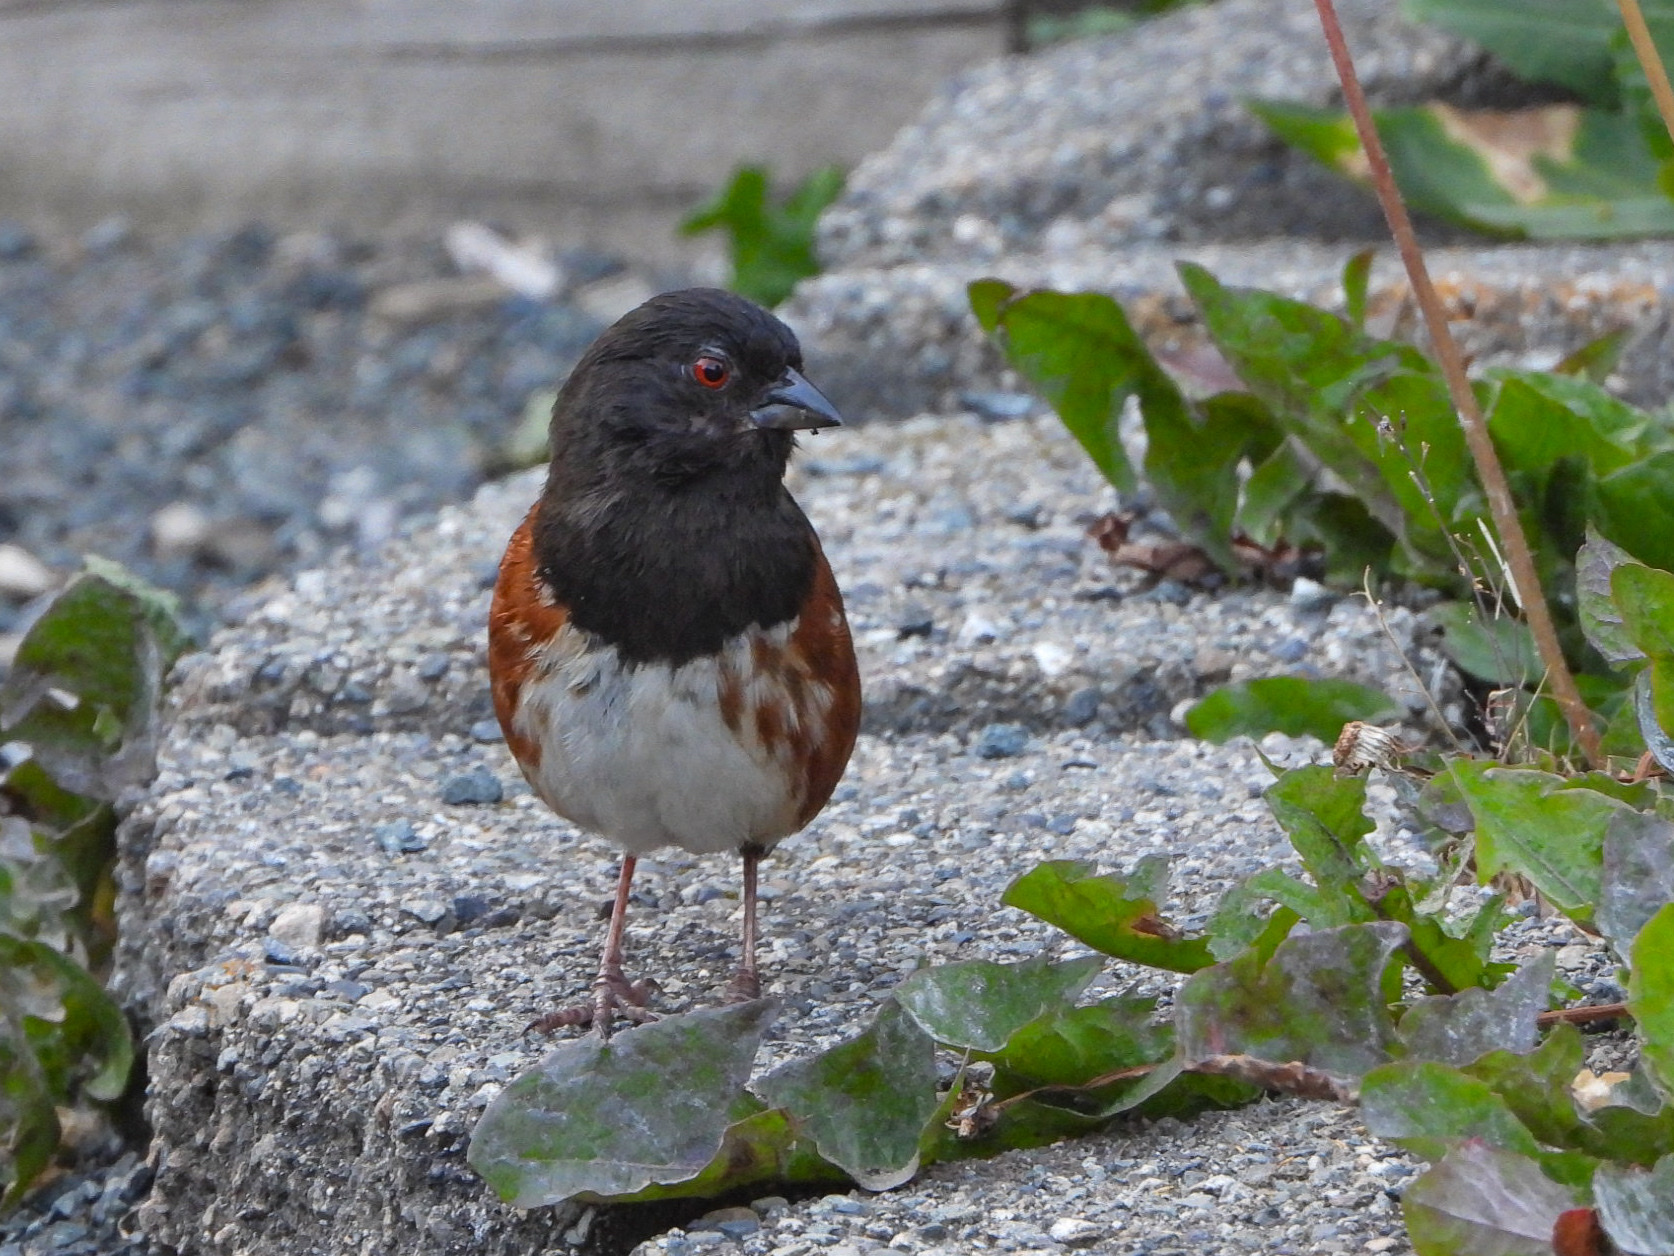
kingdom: Animalia
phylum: Chordata
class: Aves
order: Passeriformes
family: Passerellidae
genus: Pipilo
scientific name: Pipilo maculatus
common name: Spotted towhee
